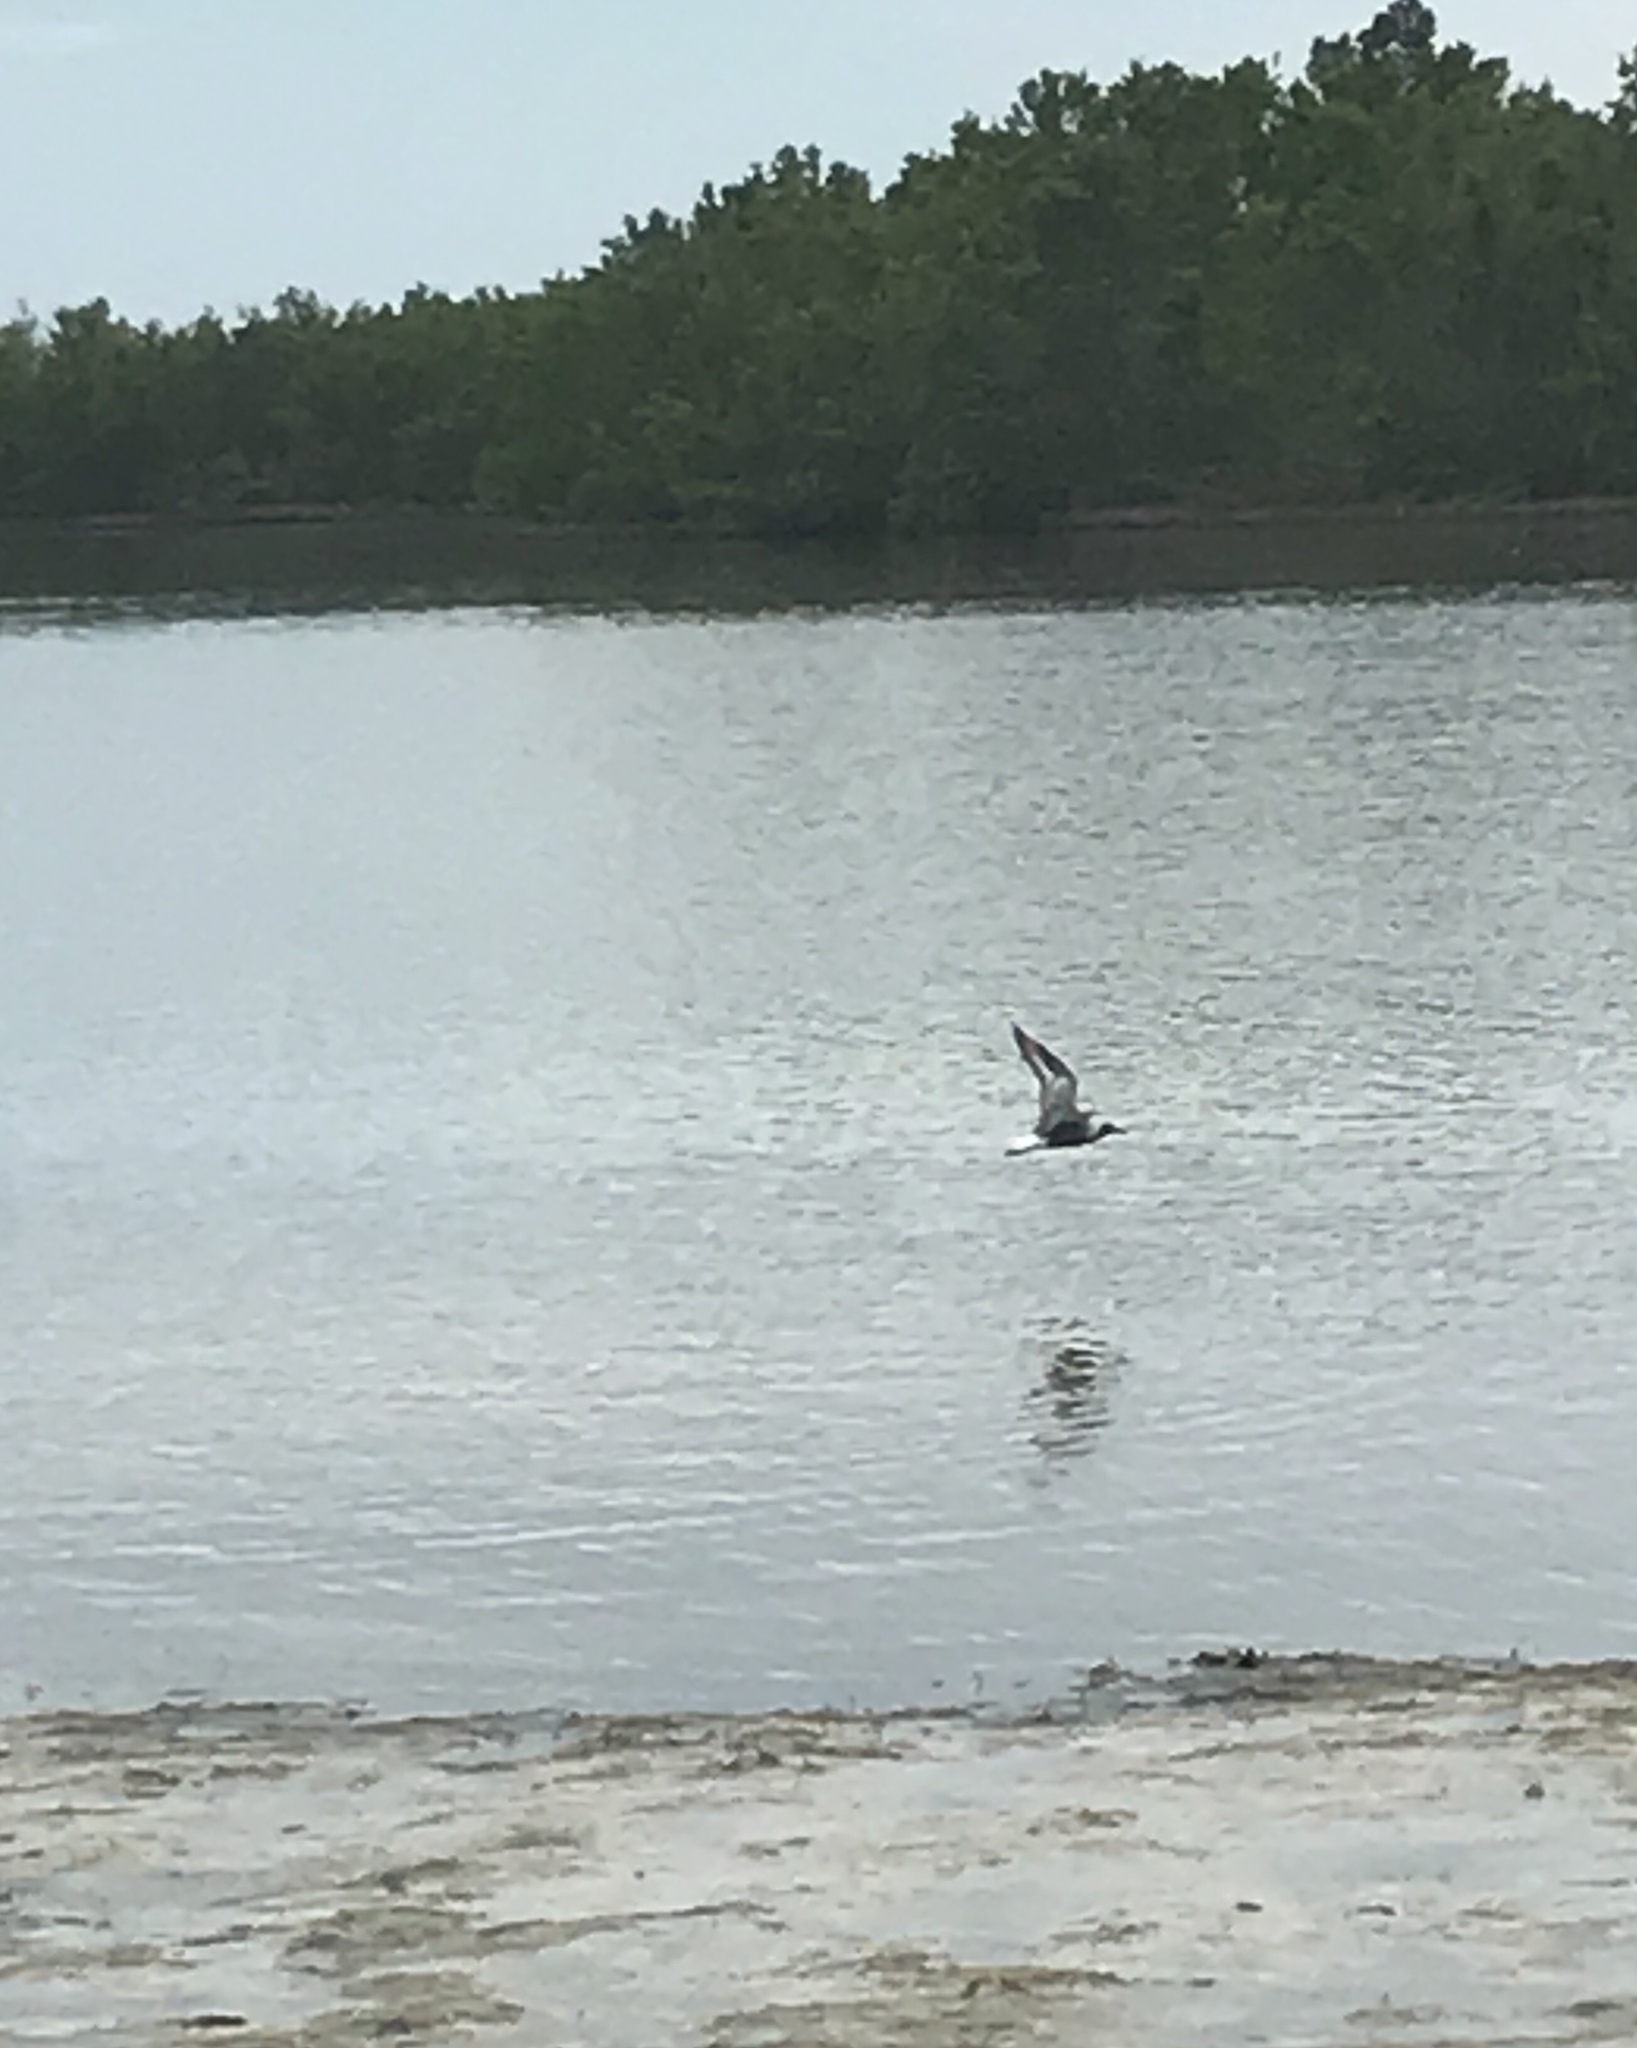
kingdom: Animalia
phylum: Chordata
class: Aves
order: Charadriiformes
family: Charadriidae
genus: Pluvialis
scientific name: Pluvialis squatarola
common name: Grey plover
